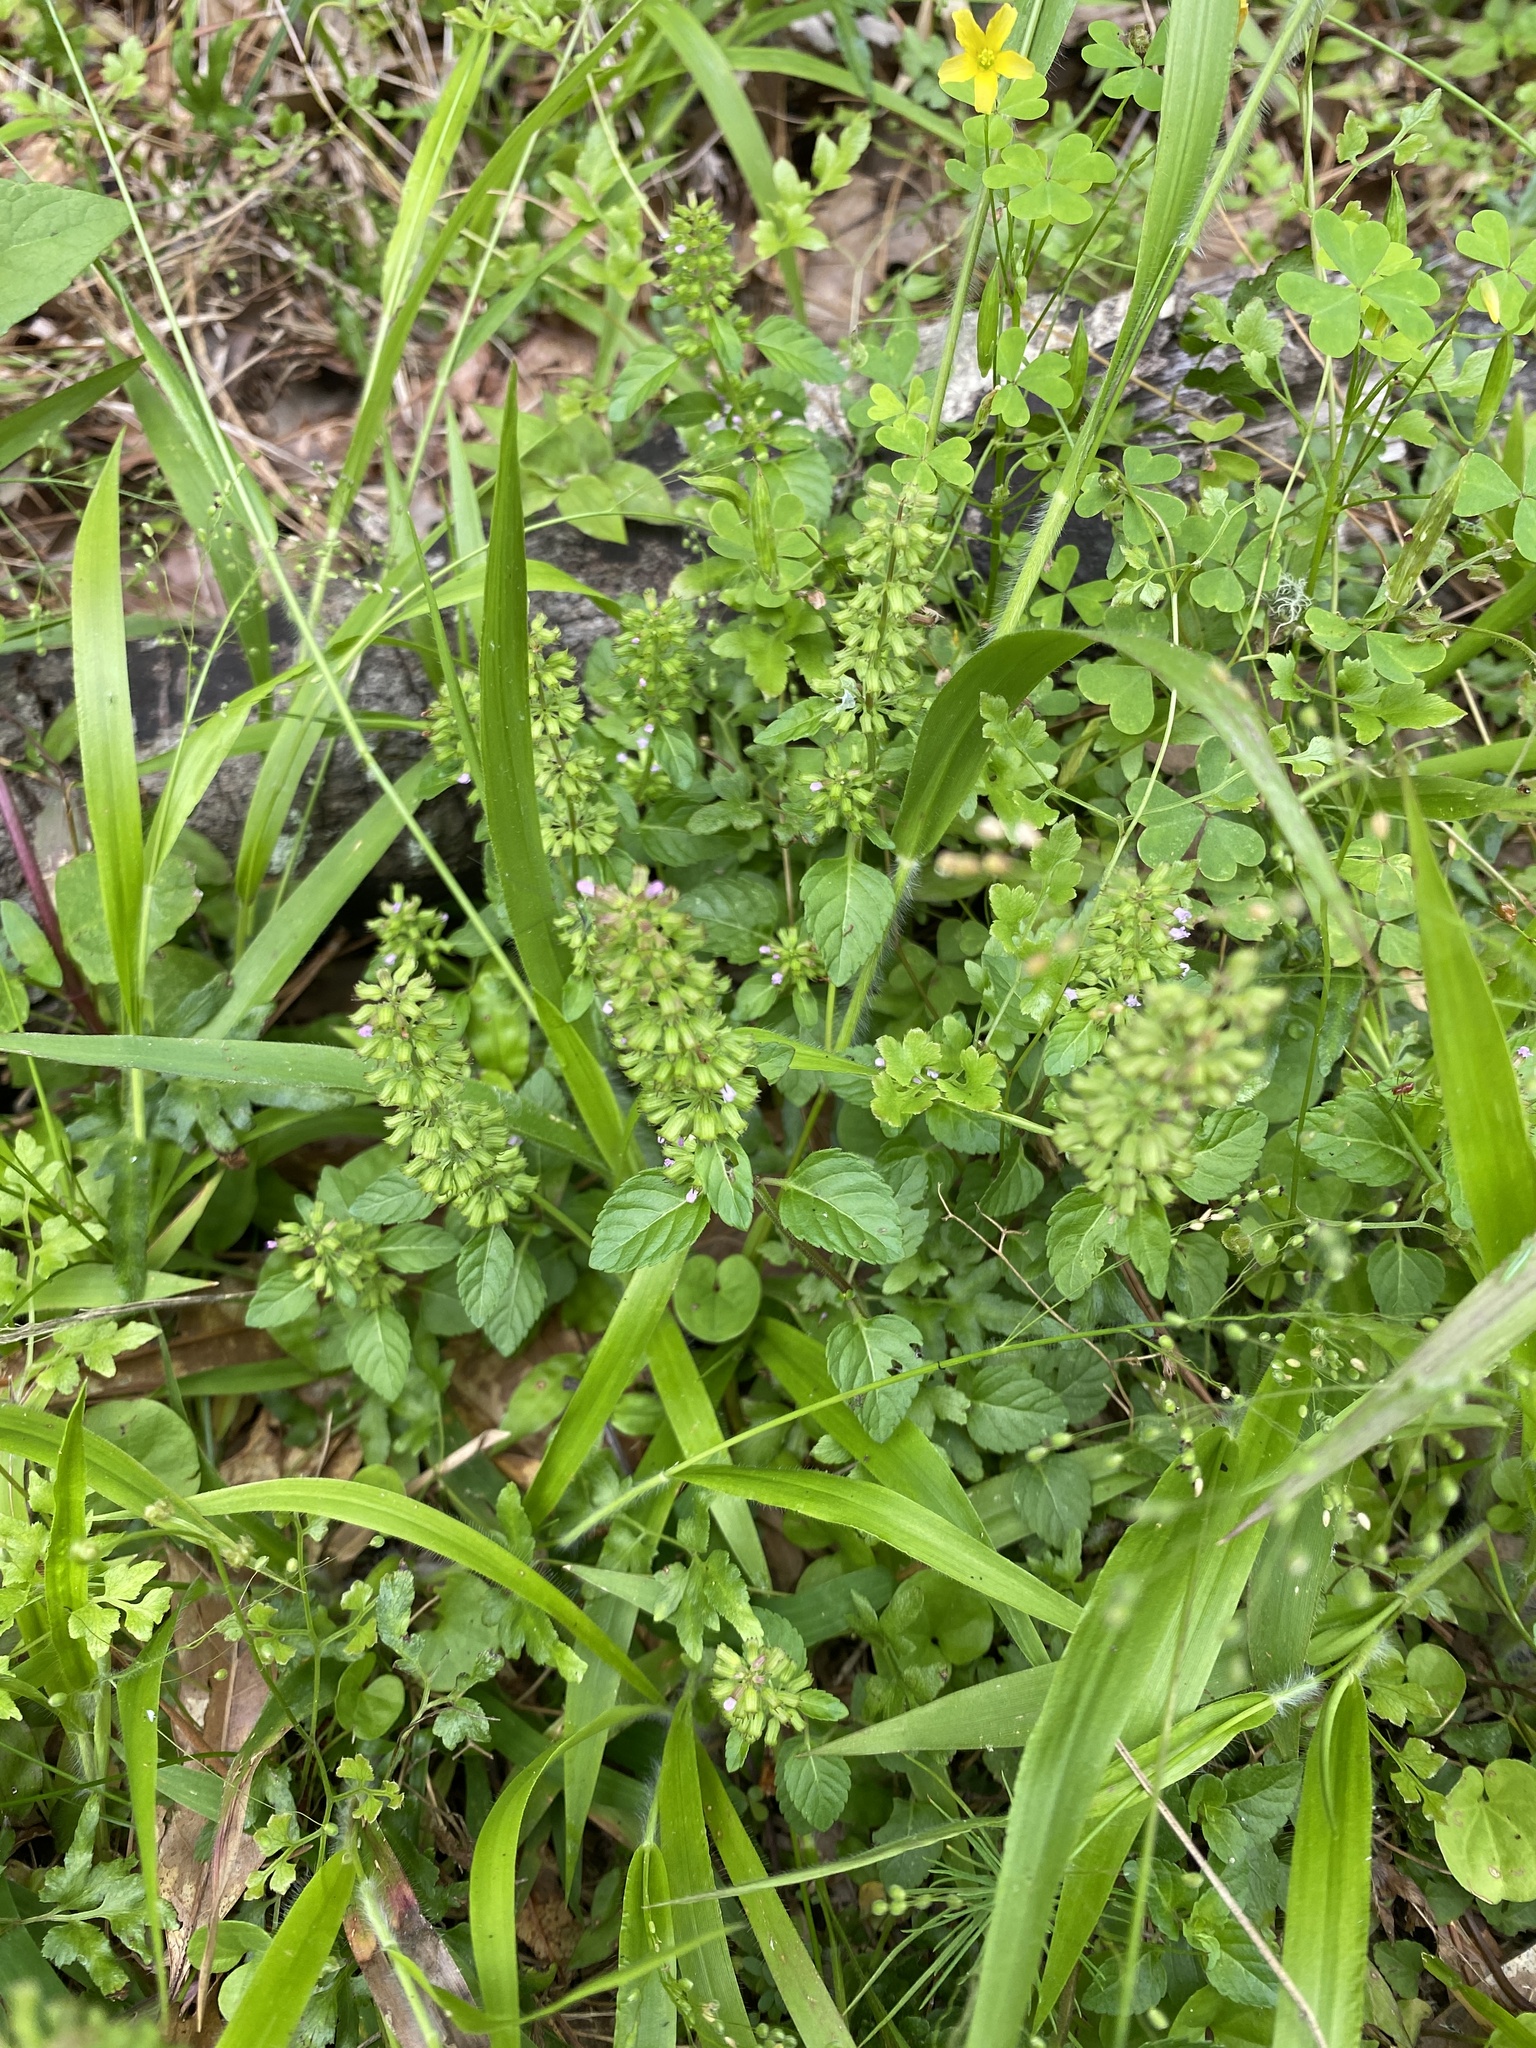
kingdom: Plantae
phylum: Tracheophyta
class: Magnoliopsida
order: Lamiales
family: Lamiaceae
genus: Clinopodium
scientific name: Clinopodium gracile
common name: Slender wild basil
